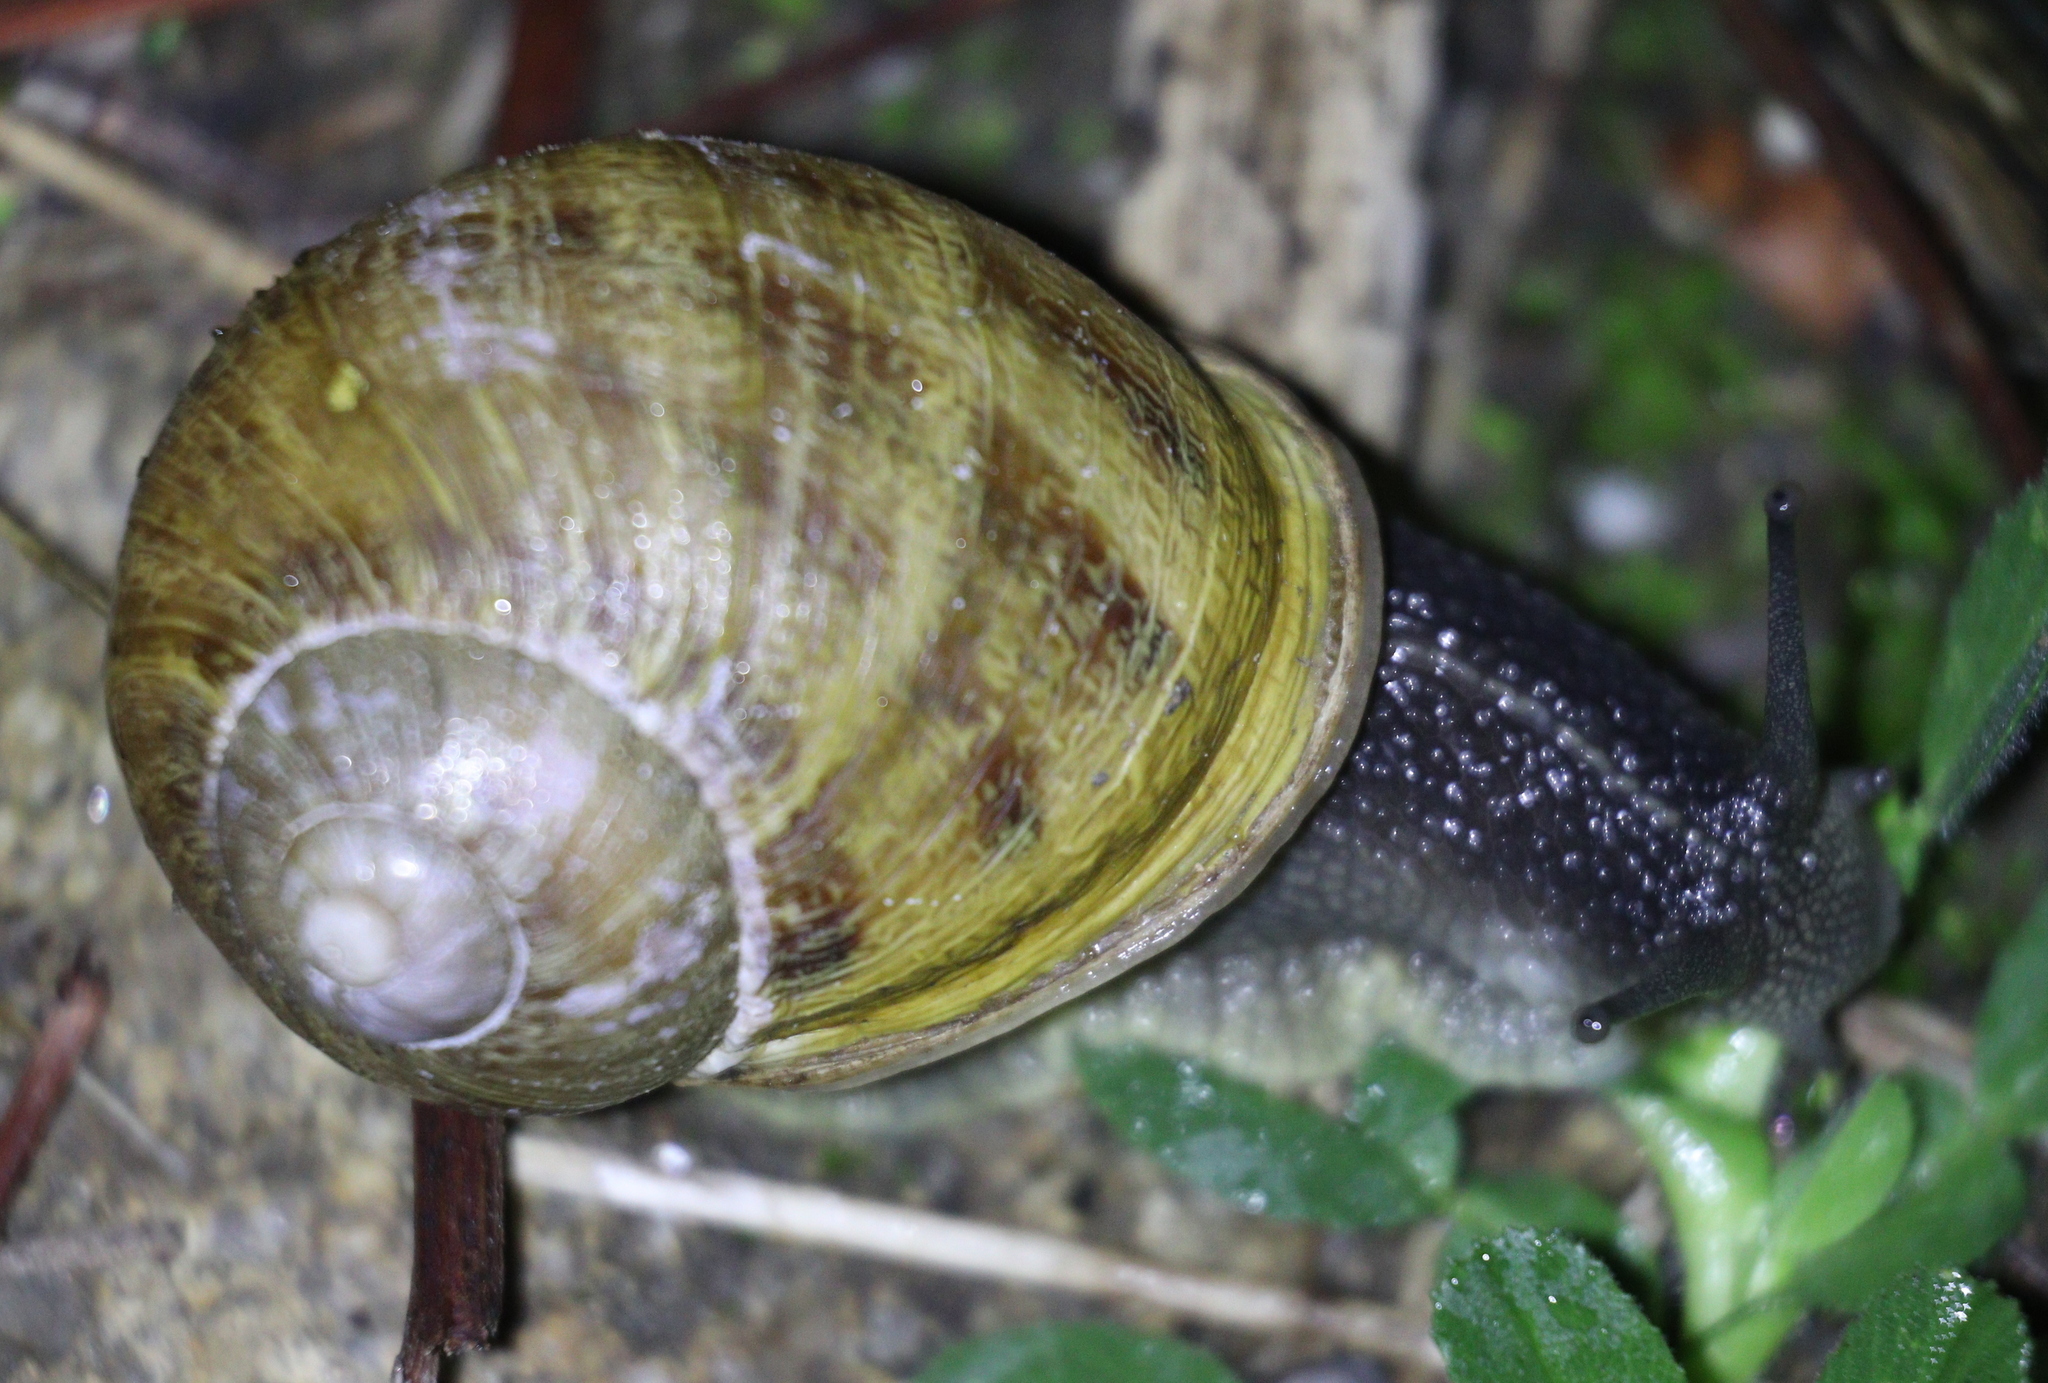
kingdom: Animalia
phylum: Mollusca
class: Gastropoda
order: Stylommatophora
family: Helicidae
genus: Cornu
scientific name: Cornu aspersum
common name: Brown garden snail
